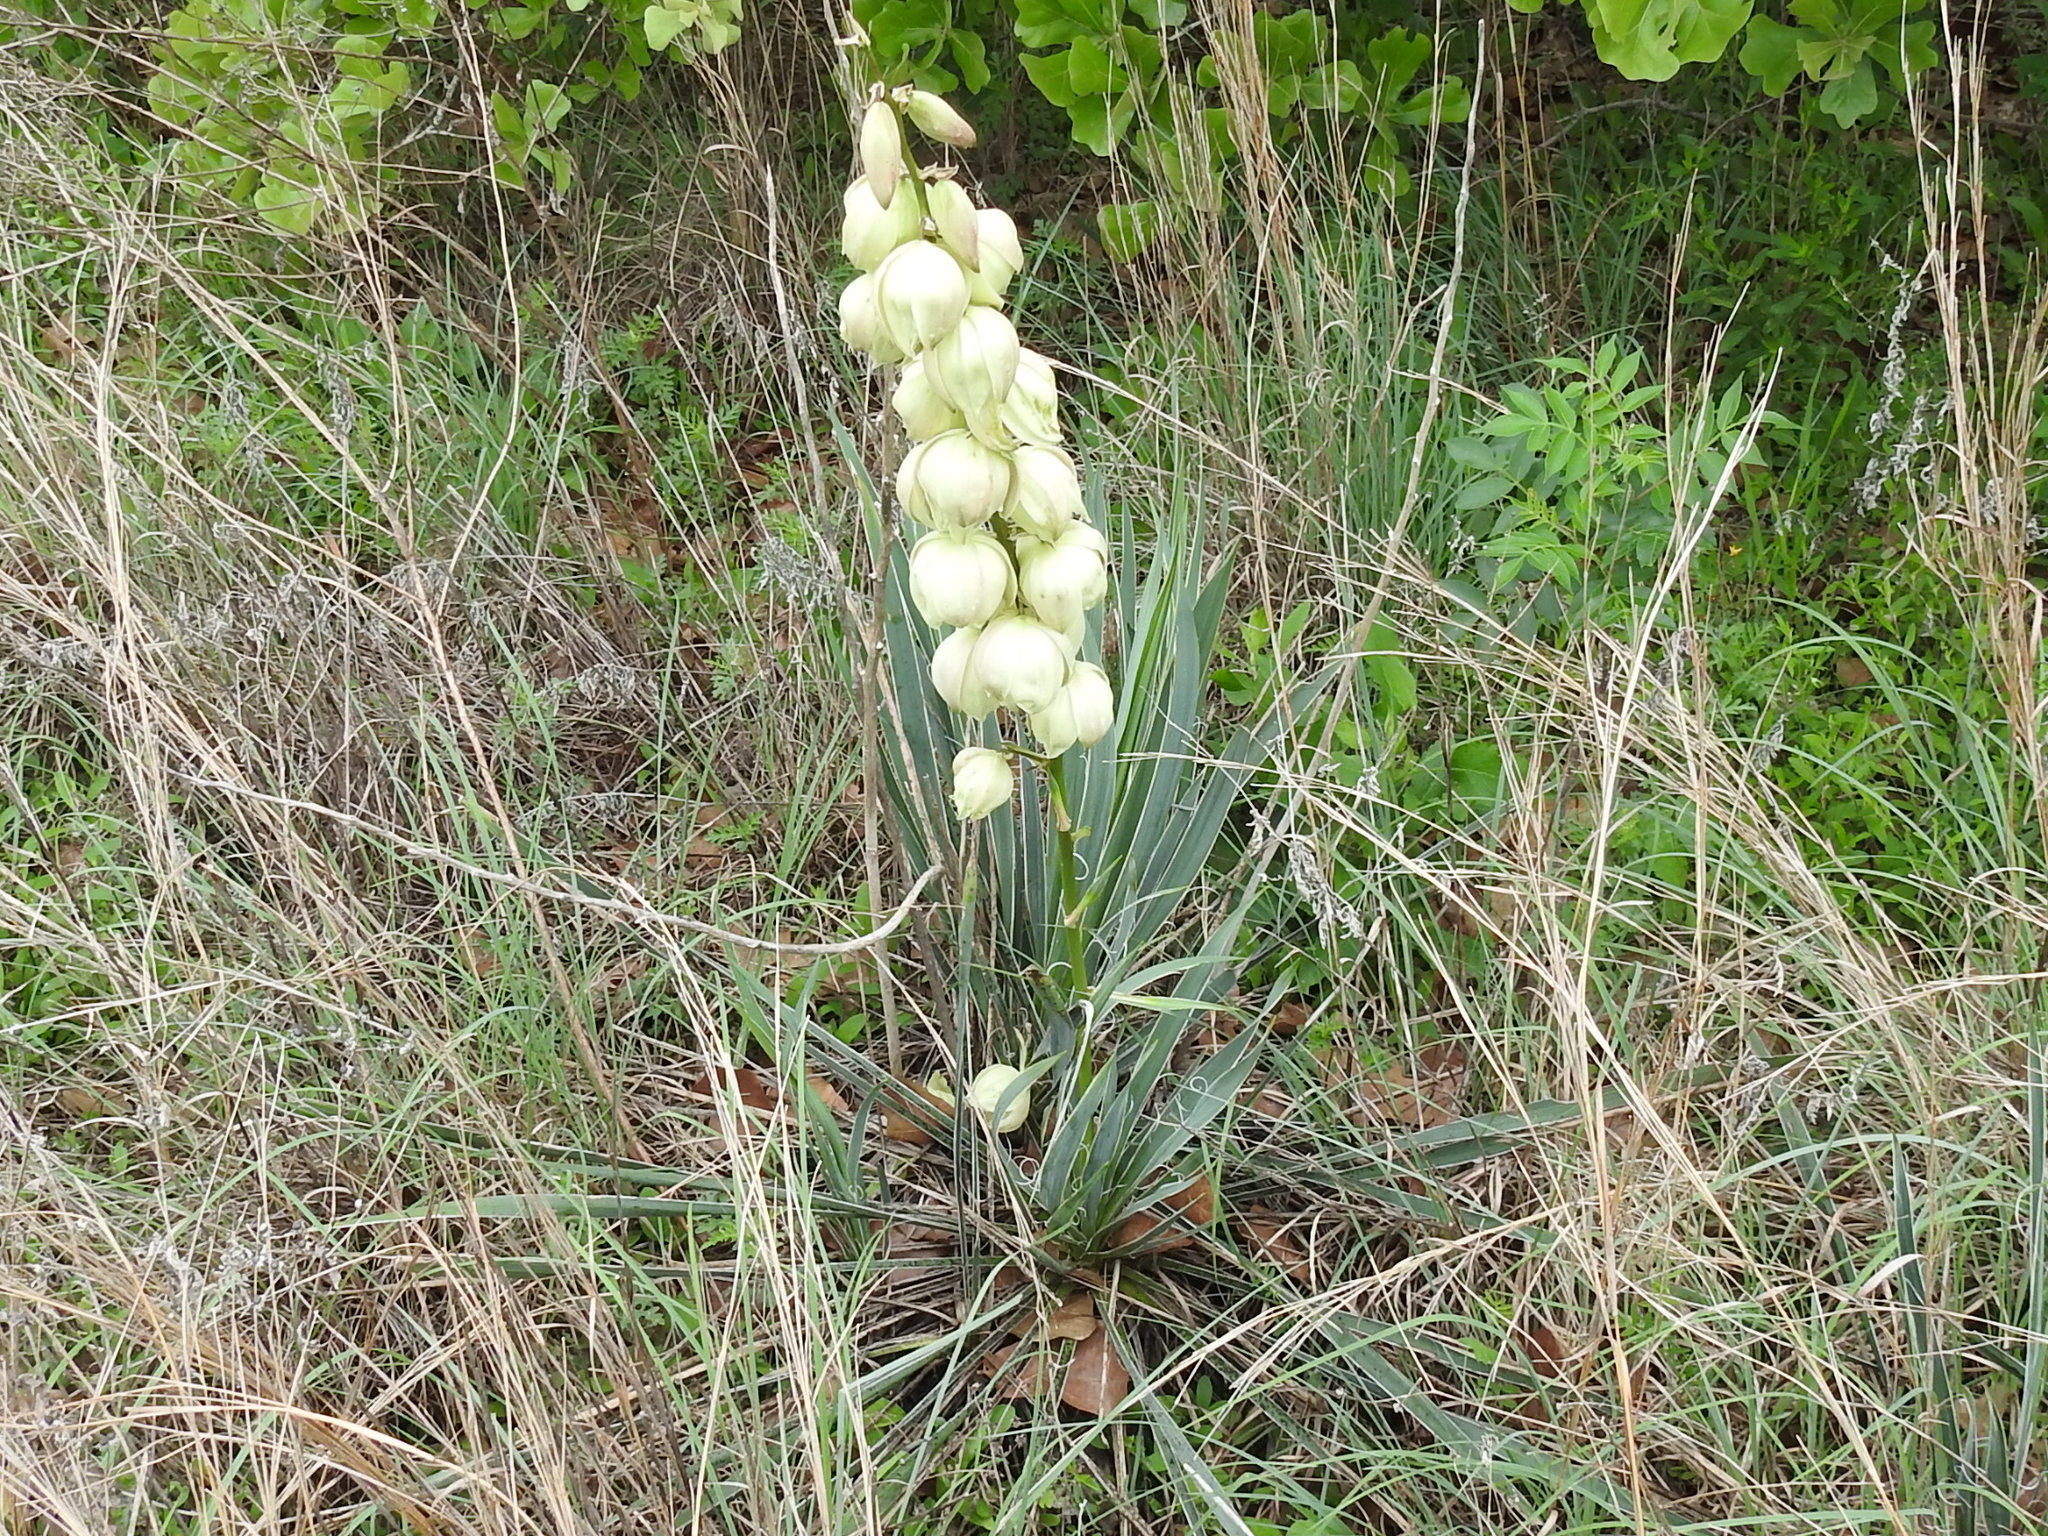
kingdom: Plantae
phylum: Tracheophyta
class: Liliopsida
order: Asparagales
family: Asparagaceae
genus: Yucca
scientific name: Yucca arkansana
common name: Arkansas yucca
